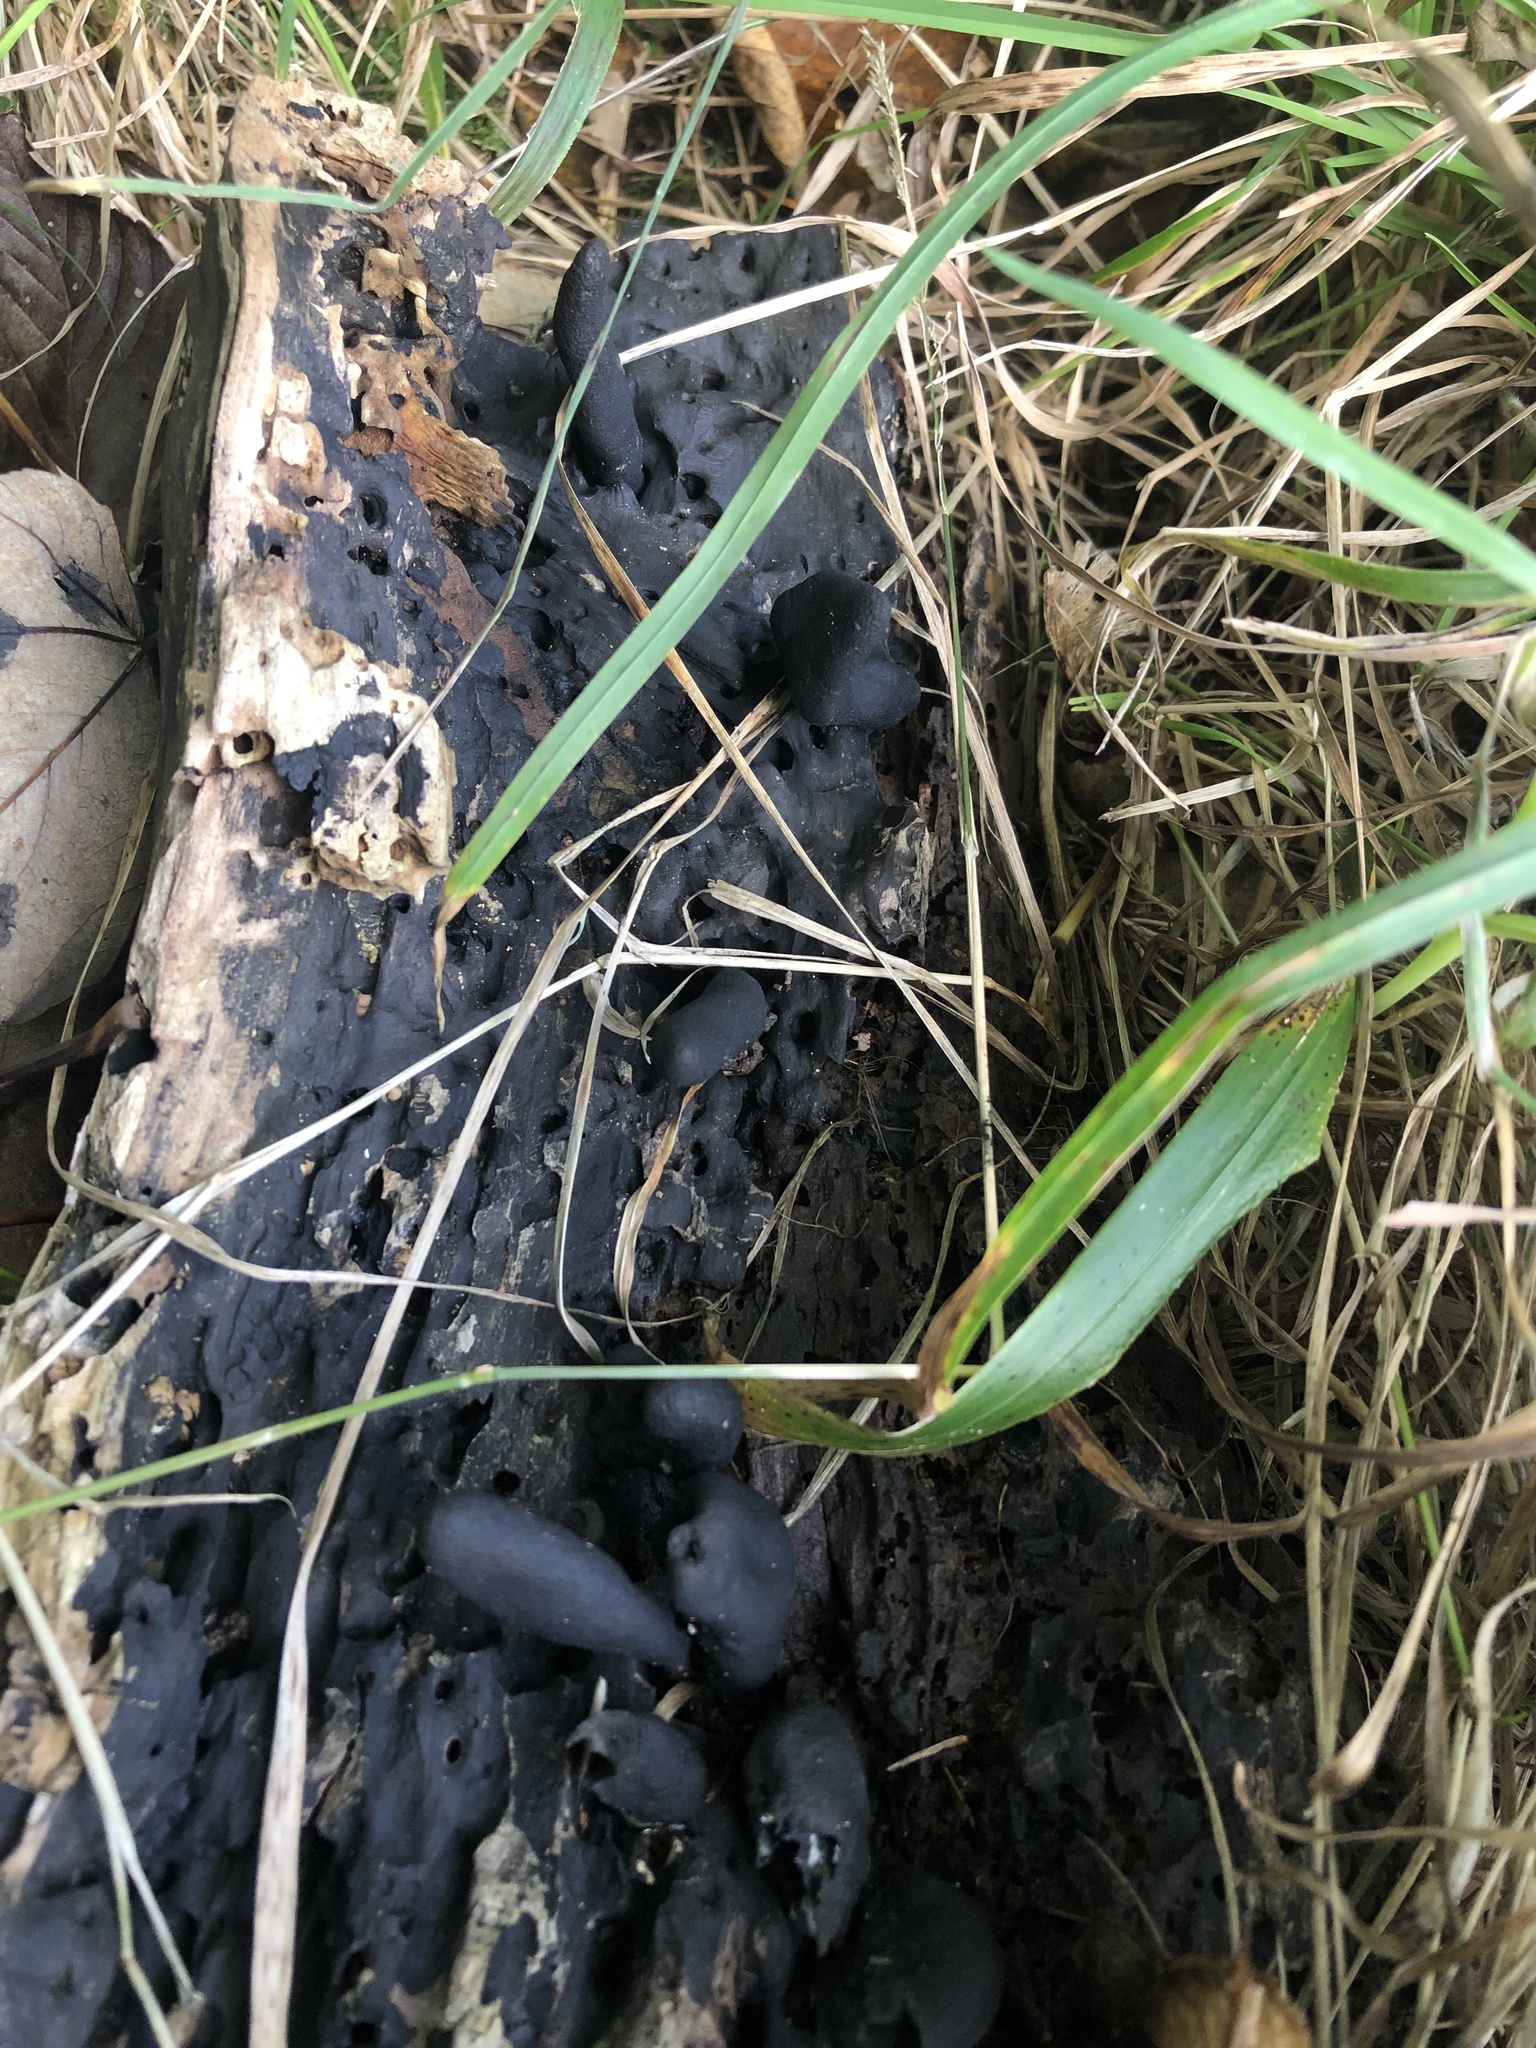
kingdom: Fungi
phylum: Ascomycota
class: Sordariomycetes
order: Xylariales
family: Xylariaceae
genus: Xylaria
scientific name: Xylaria polymorpha
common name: Dead man's fingers
